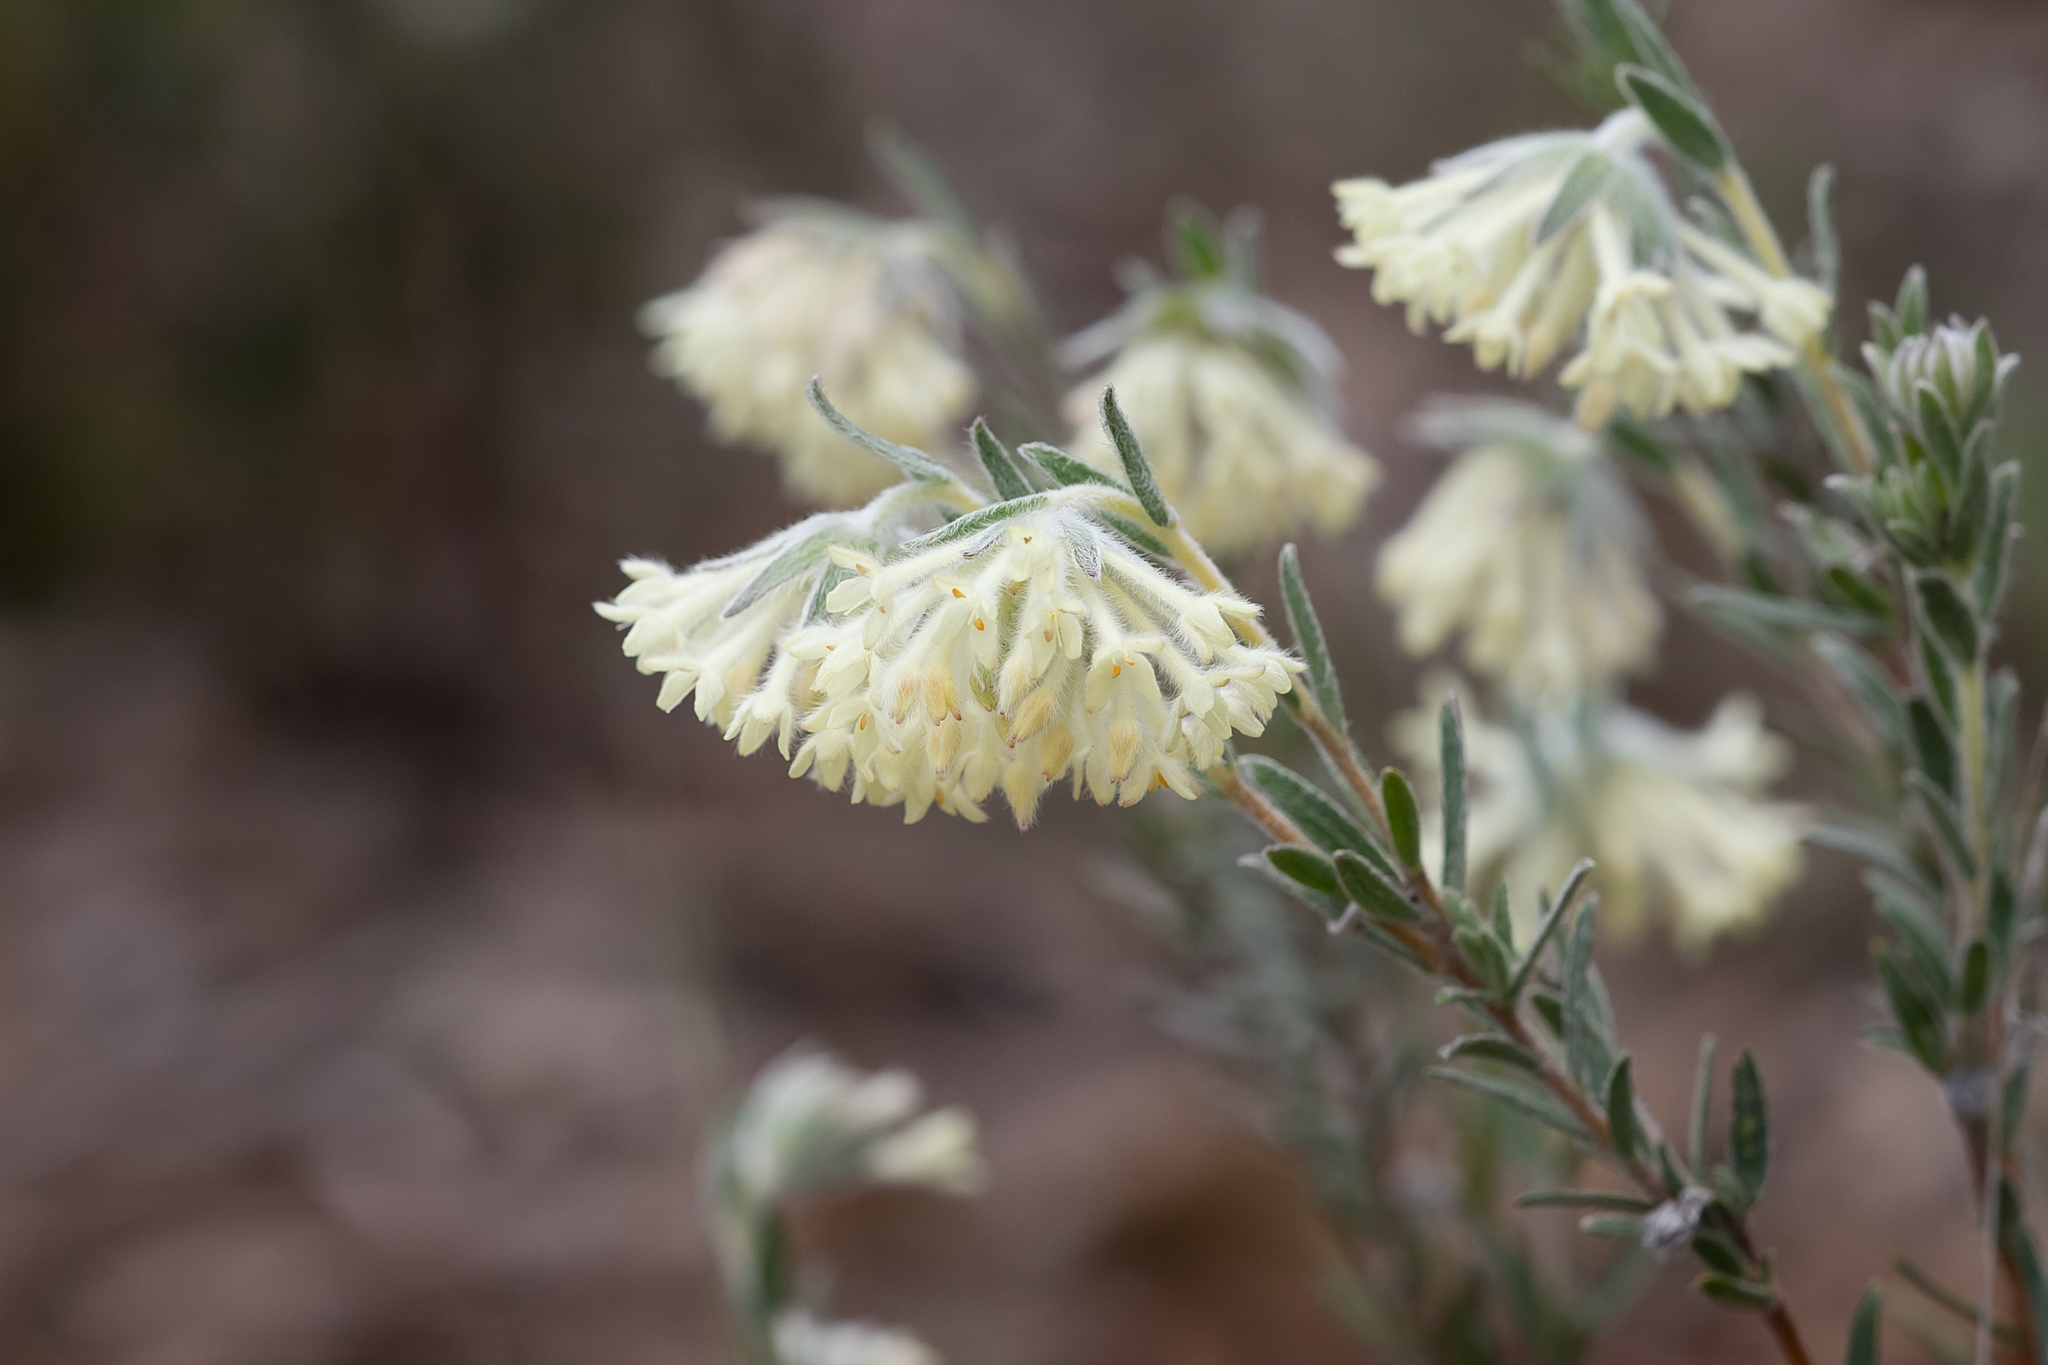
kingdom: Plantae
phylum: Tracheophyta
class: Magnoliopsida
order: Malvales
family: Thymelaeaceae
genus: Pimelea
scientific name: Pimelea octophylla
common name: Woolly riceflower
